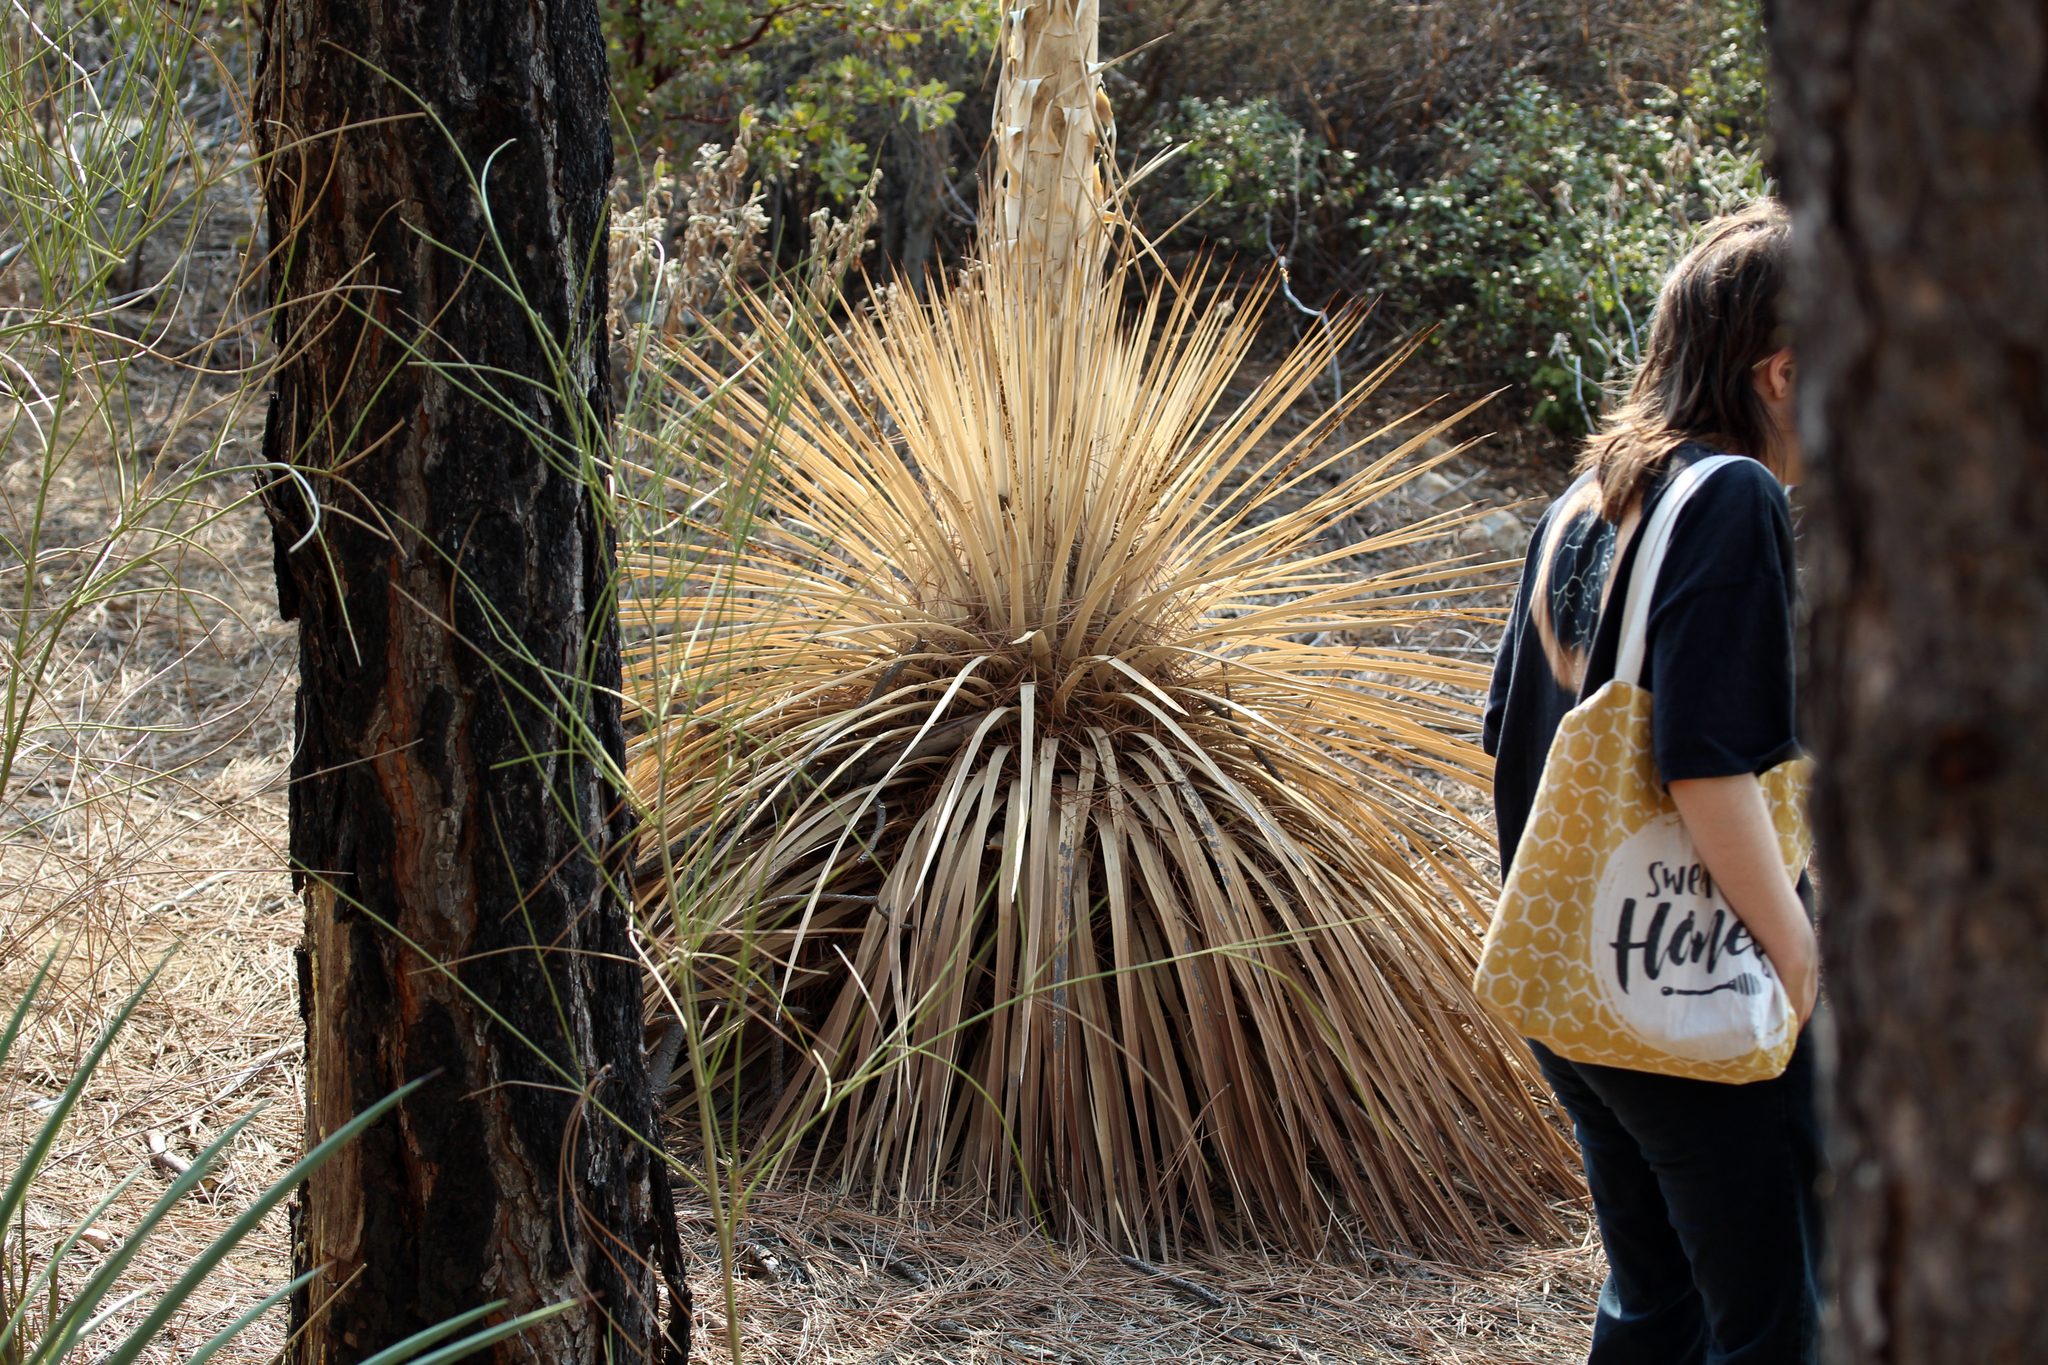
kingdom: Plantae
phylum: Tracheophyta
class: Liliopsida
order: Asparagales
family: Asparagaceae
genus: Hesperoyucca
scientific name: Hesperoyucca whipplei
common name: Our lord's-candle
